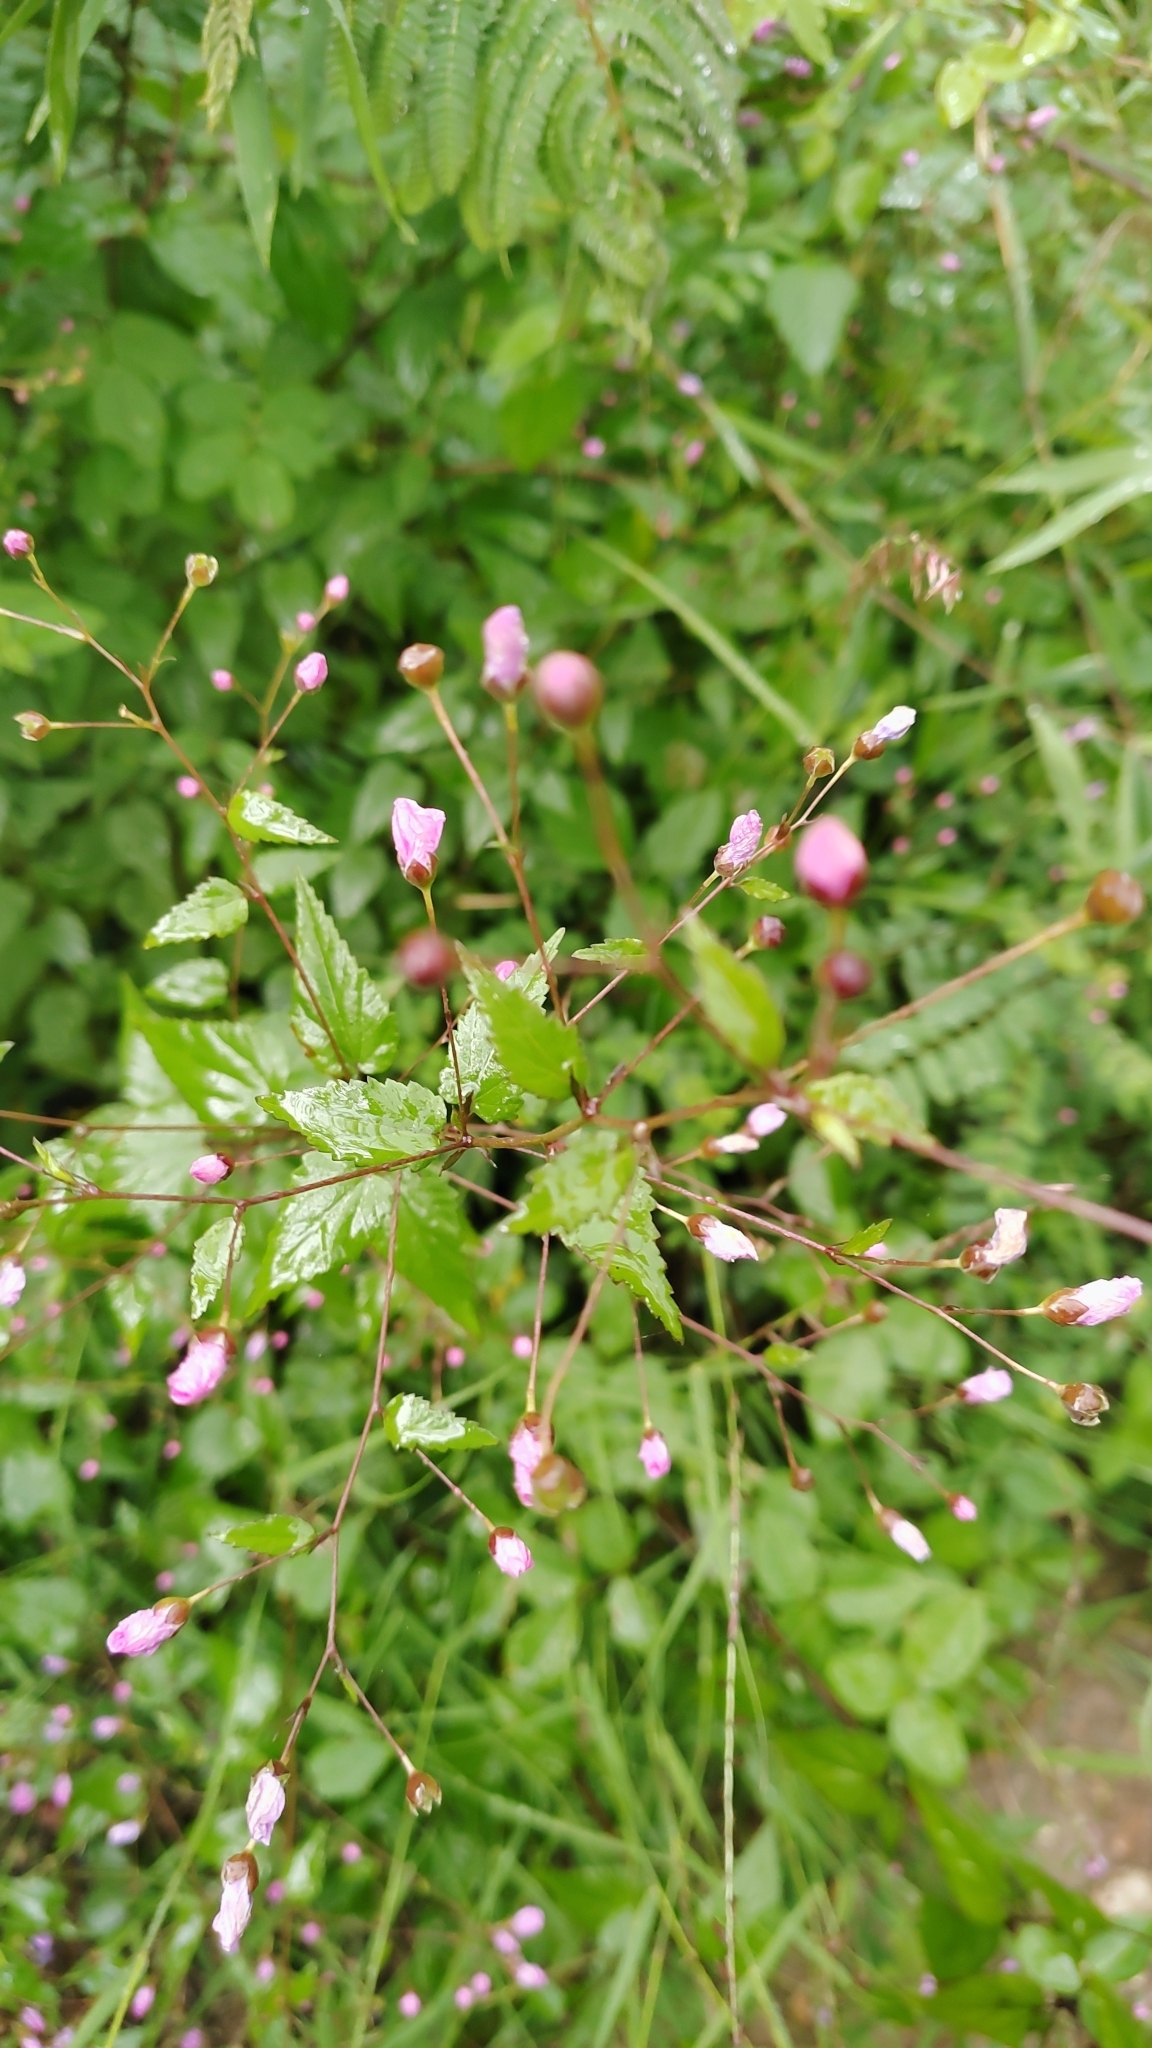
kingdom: Plantae
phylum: Tracheophyta
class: Magnoliopsida
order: Myrtales
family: Onagraceae
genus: Lopezia
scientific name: Lopezia racemosa
